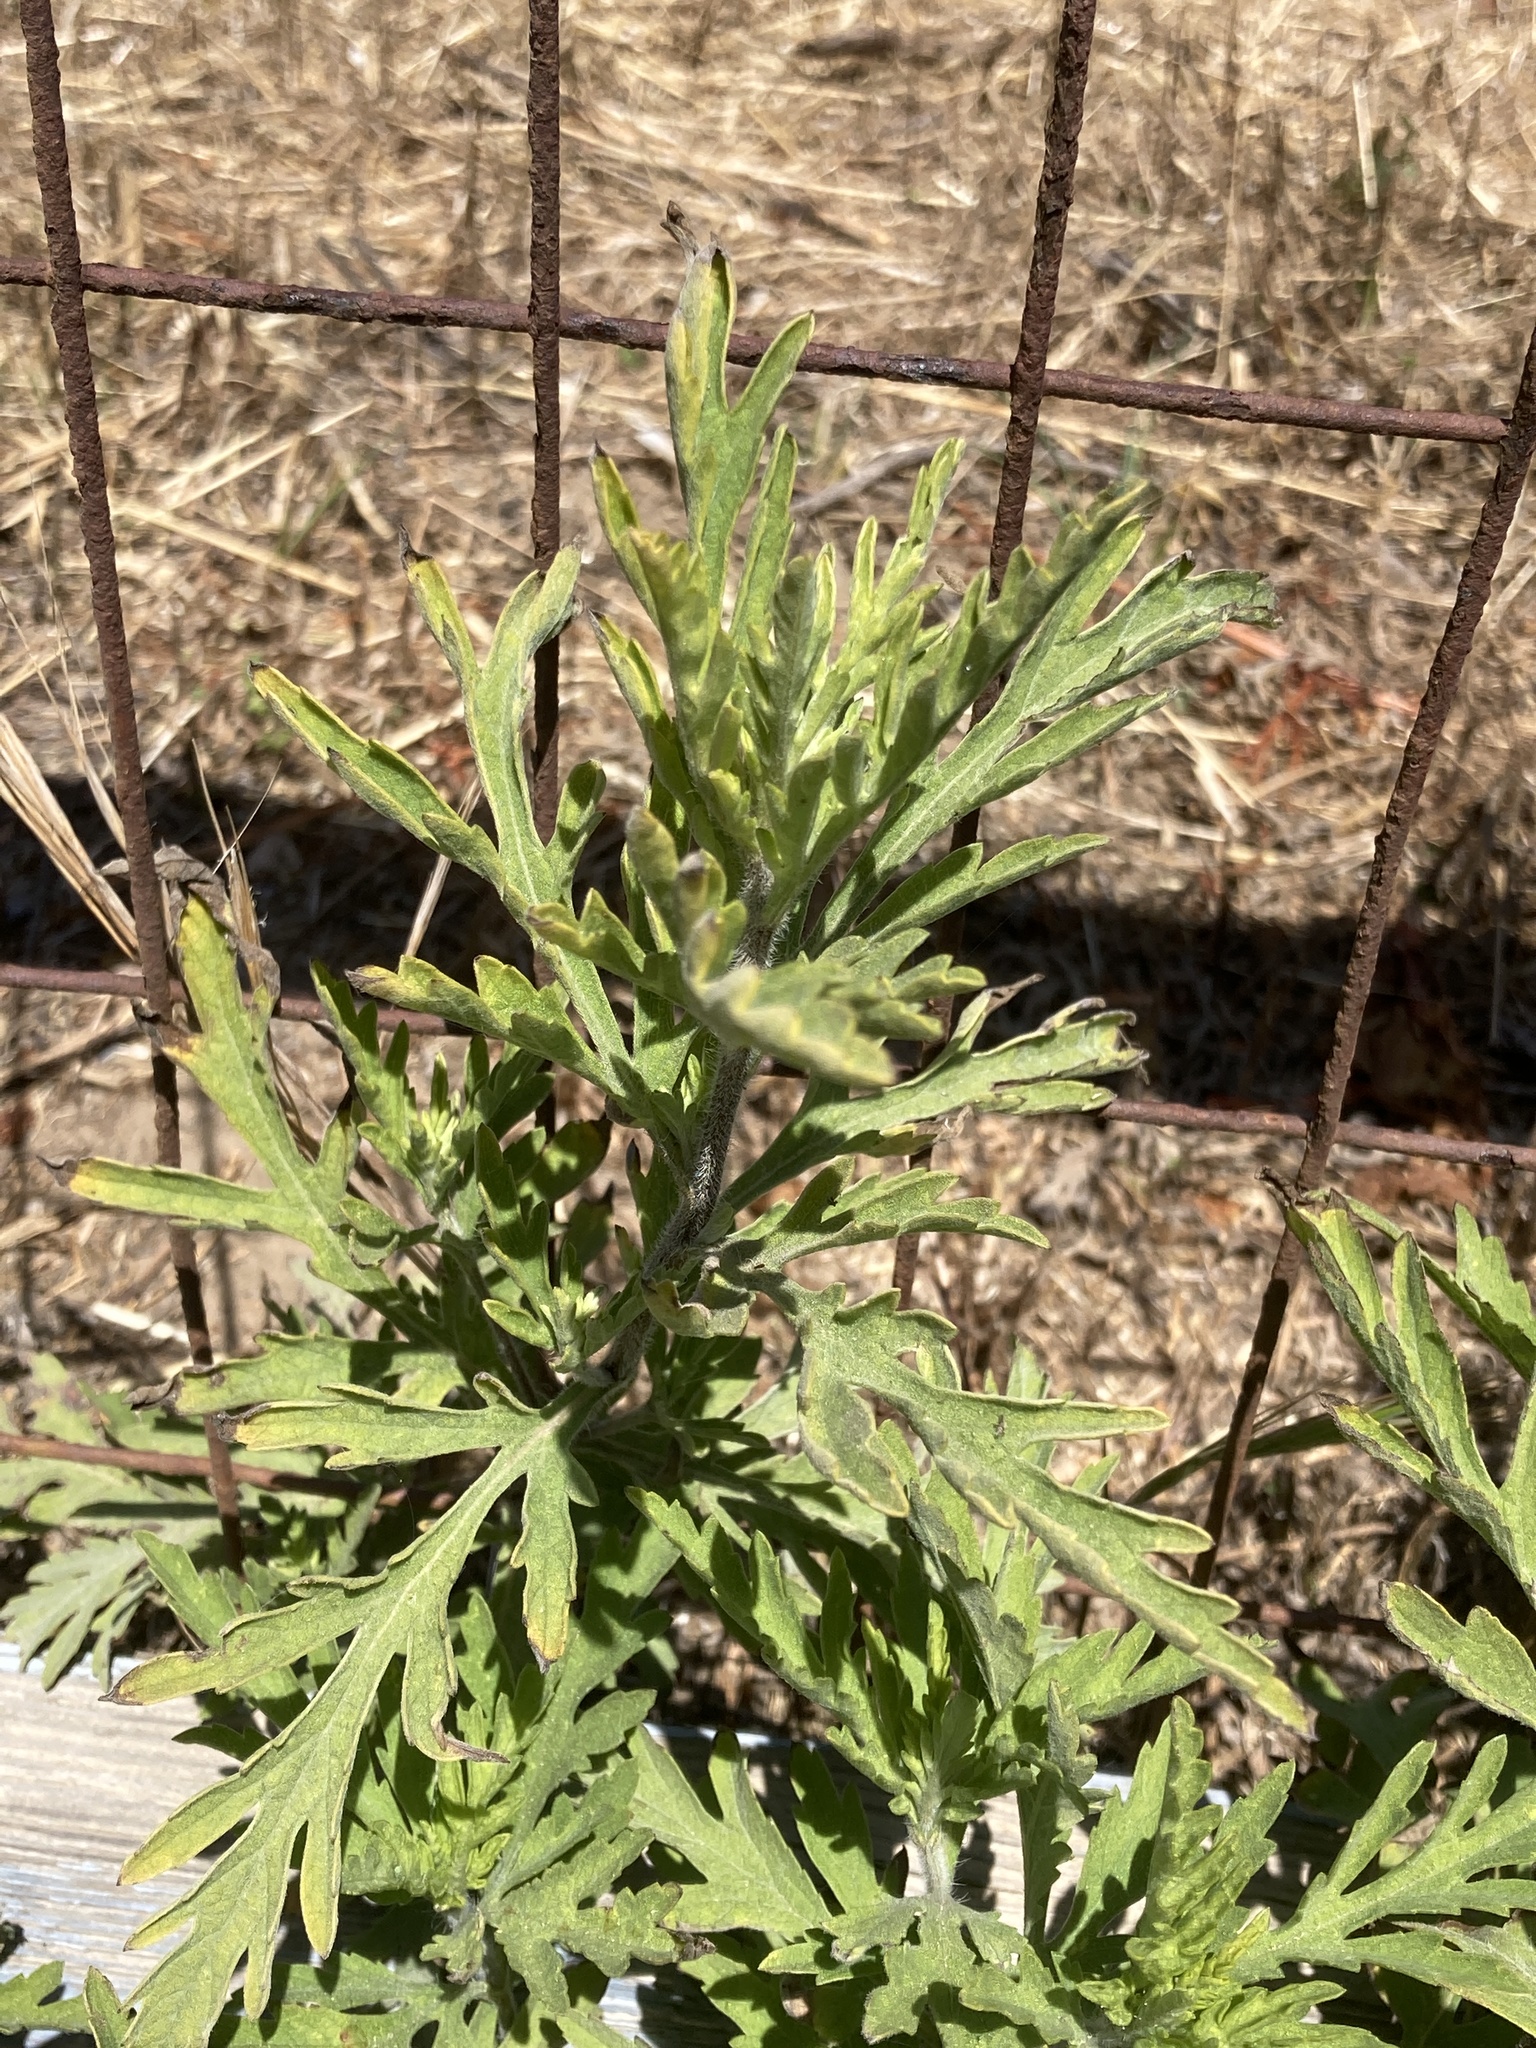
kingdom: Plantae
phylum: Tracheophyta
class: Magnoliopsida
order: Asterales
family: Asteraceae
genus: Ambrosia
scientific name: Ambrosia psilostachya
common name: Perennial ragweed
